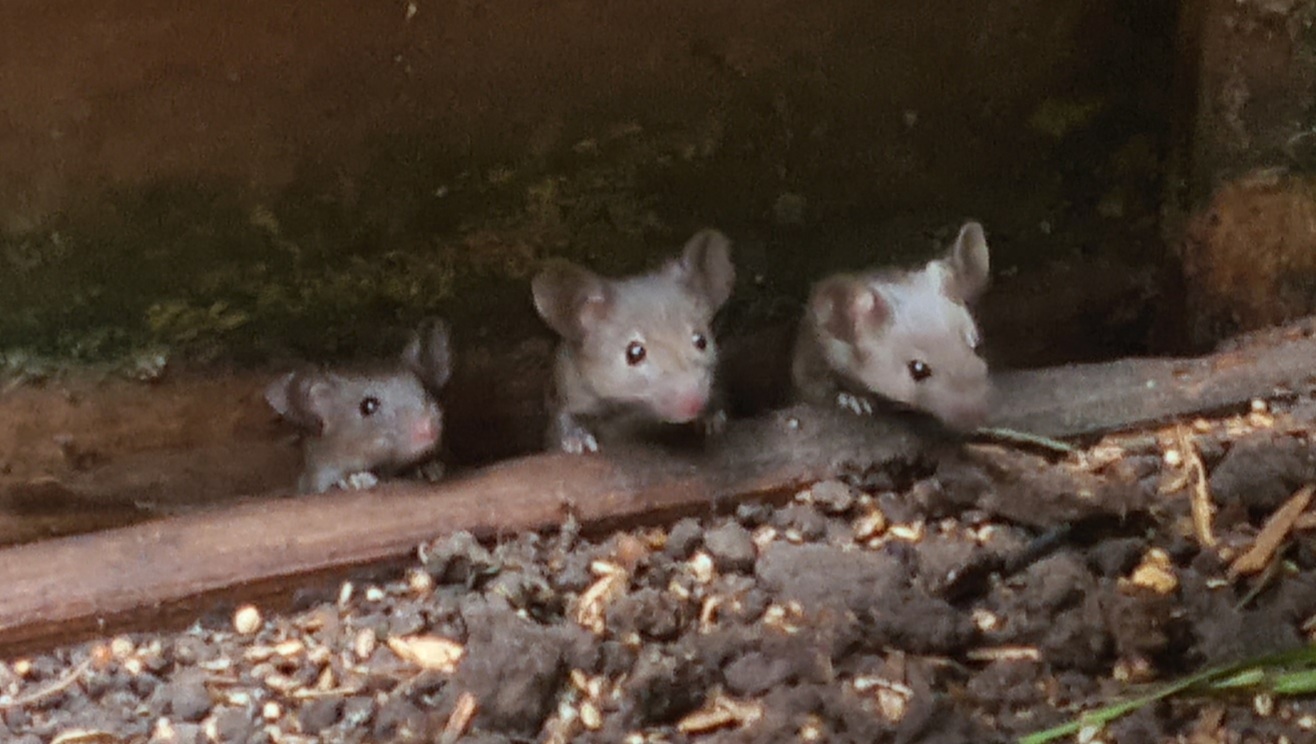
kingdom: Animalia
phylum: Chordata
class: Mammalia
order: Rodentia
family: Muridae
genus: Mus
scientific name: Mus musculus
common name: House mouse
